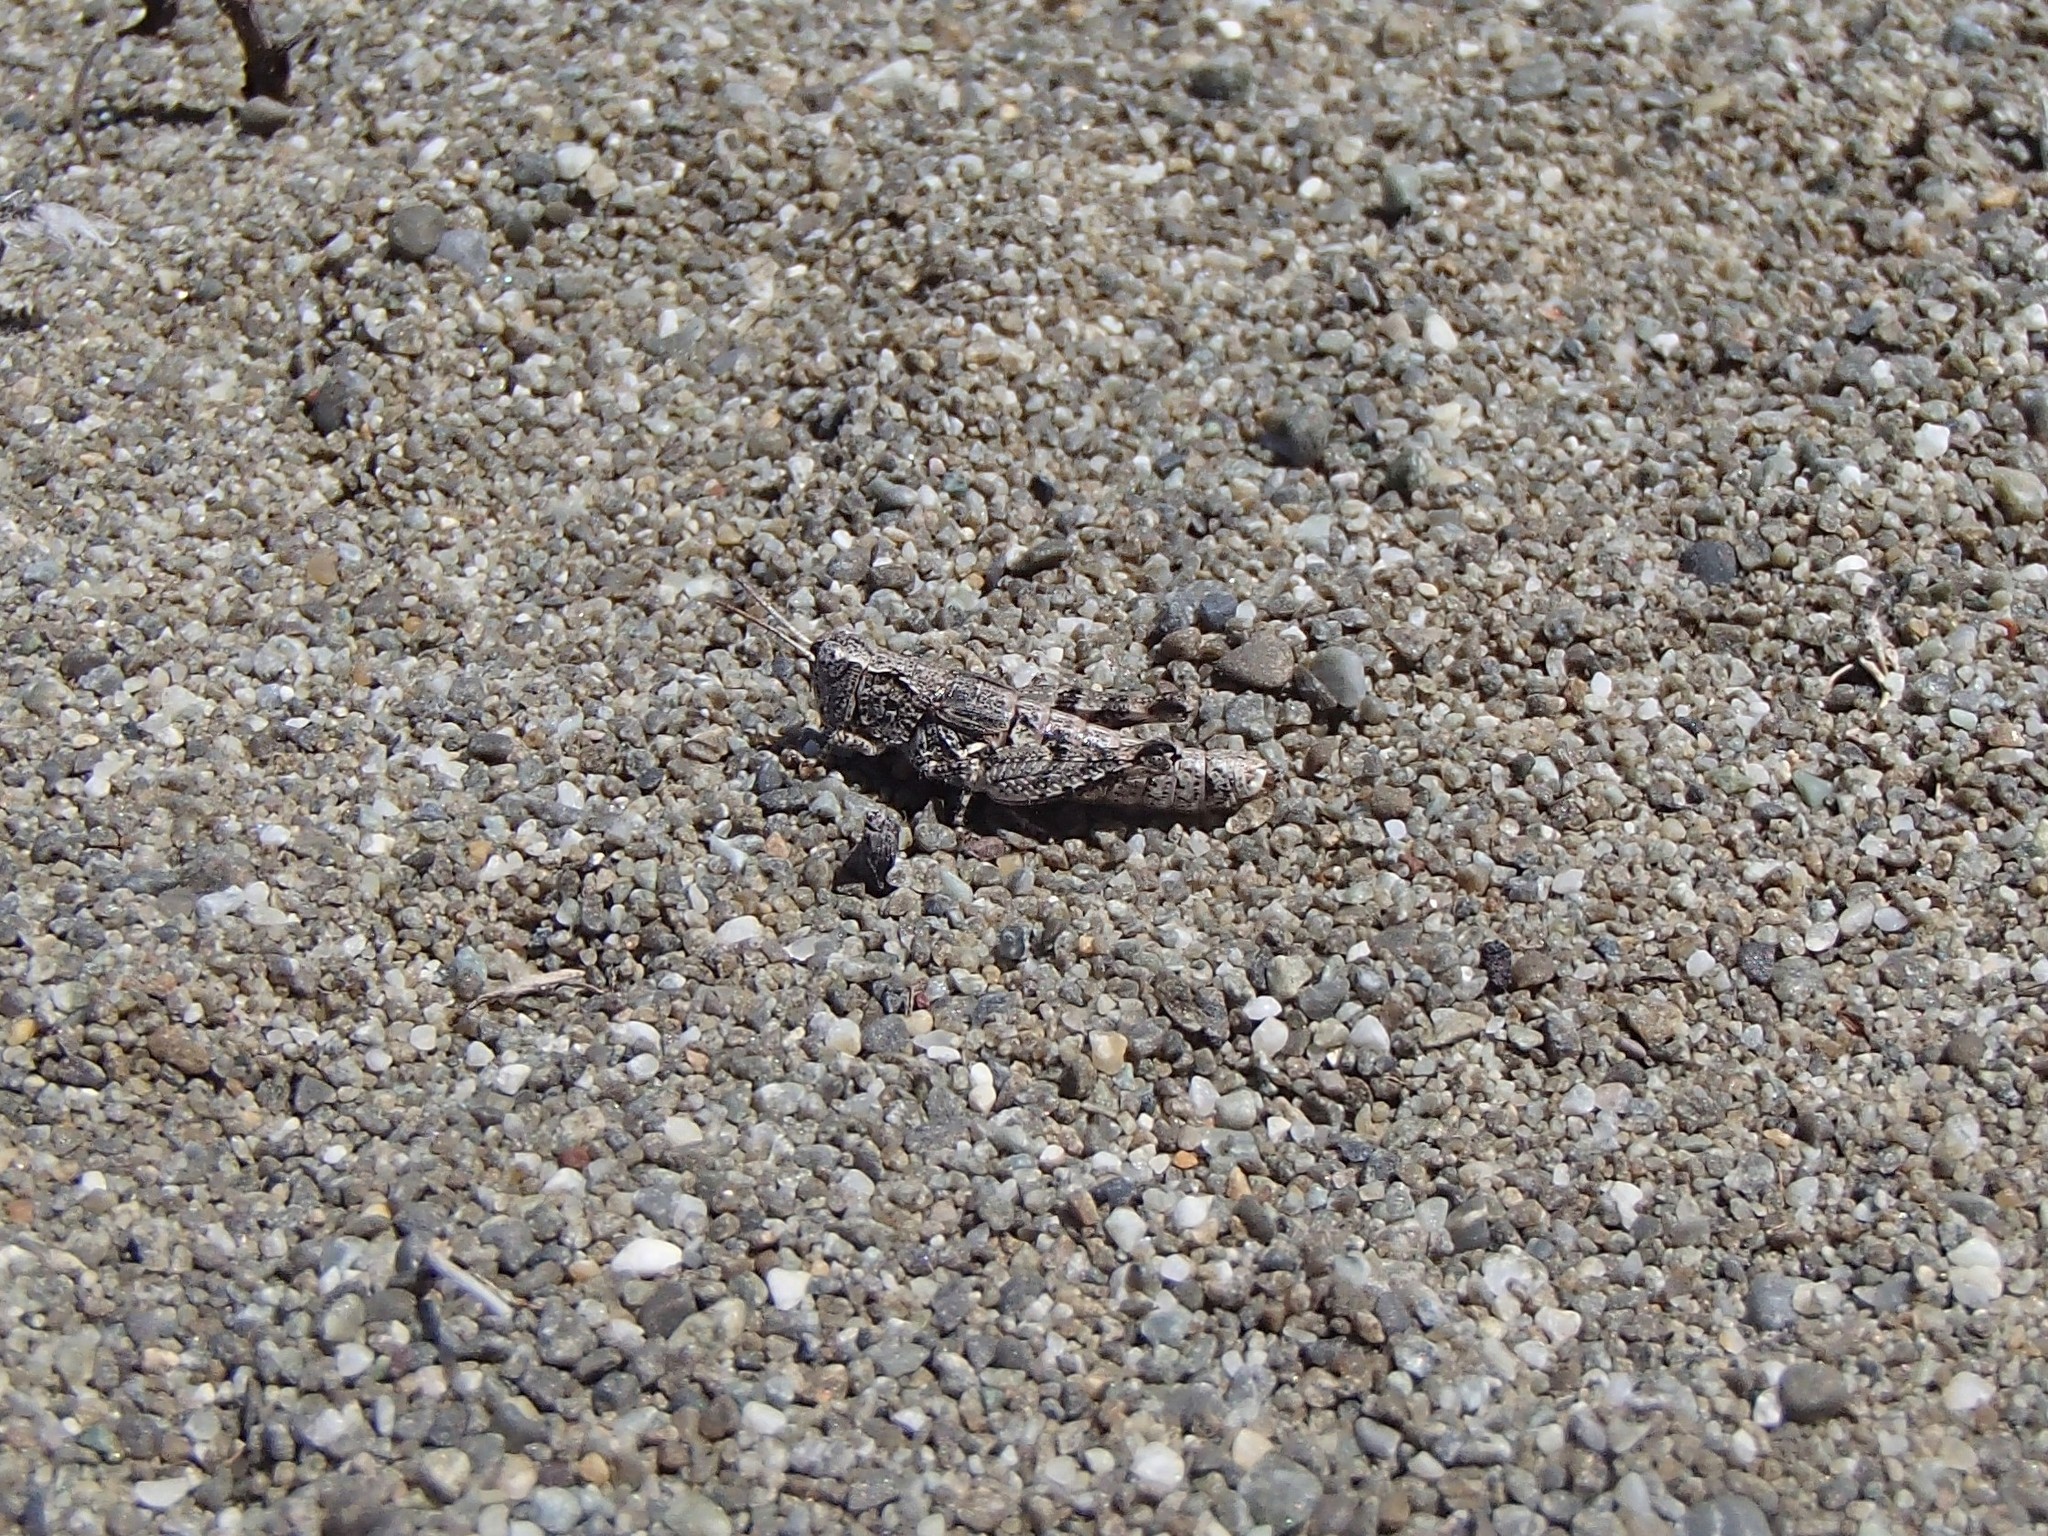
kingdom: Animalia
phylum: Arthropoda
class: Insecta
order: Orthoptera
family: Acrididae
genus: Phaulacridium
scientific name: Phaulacridium marginale
